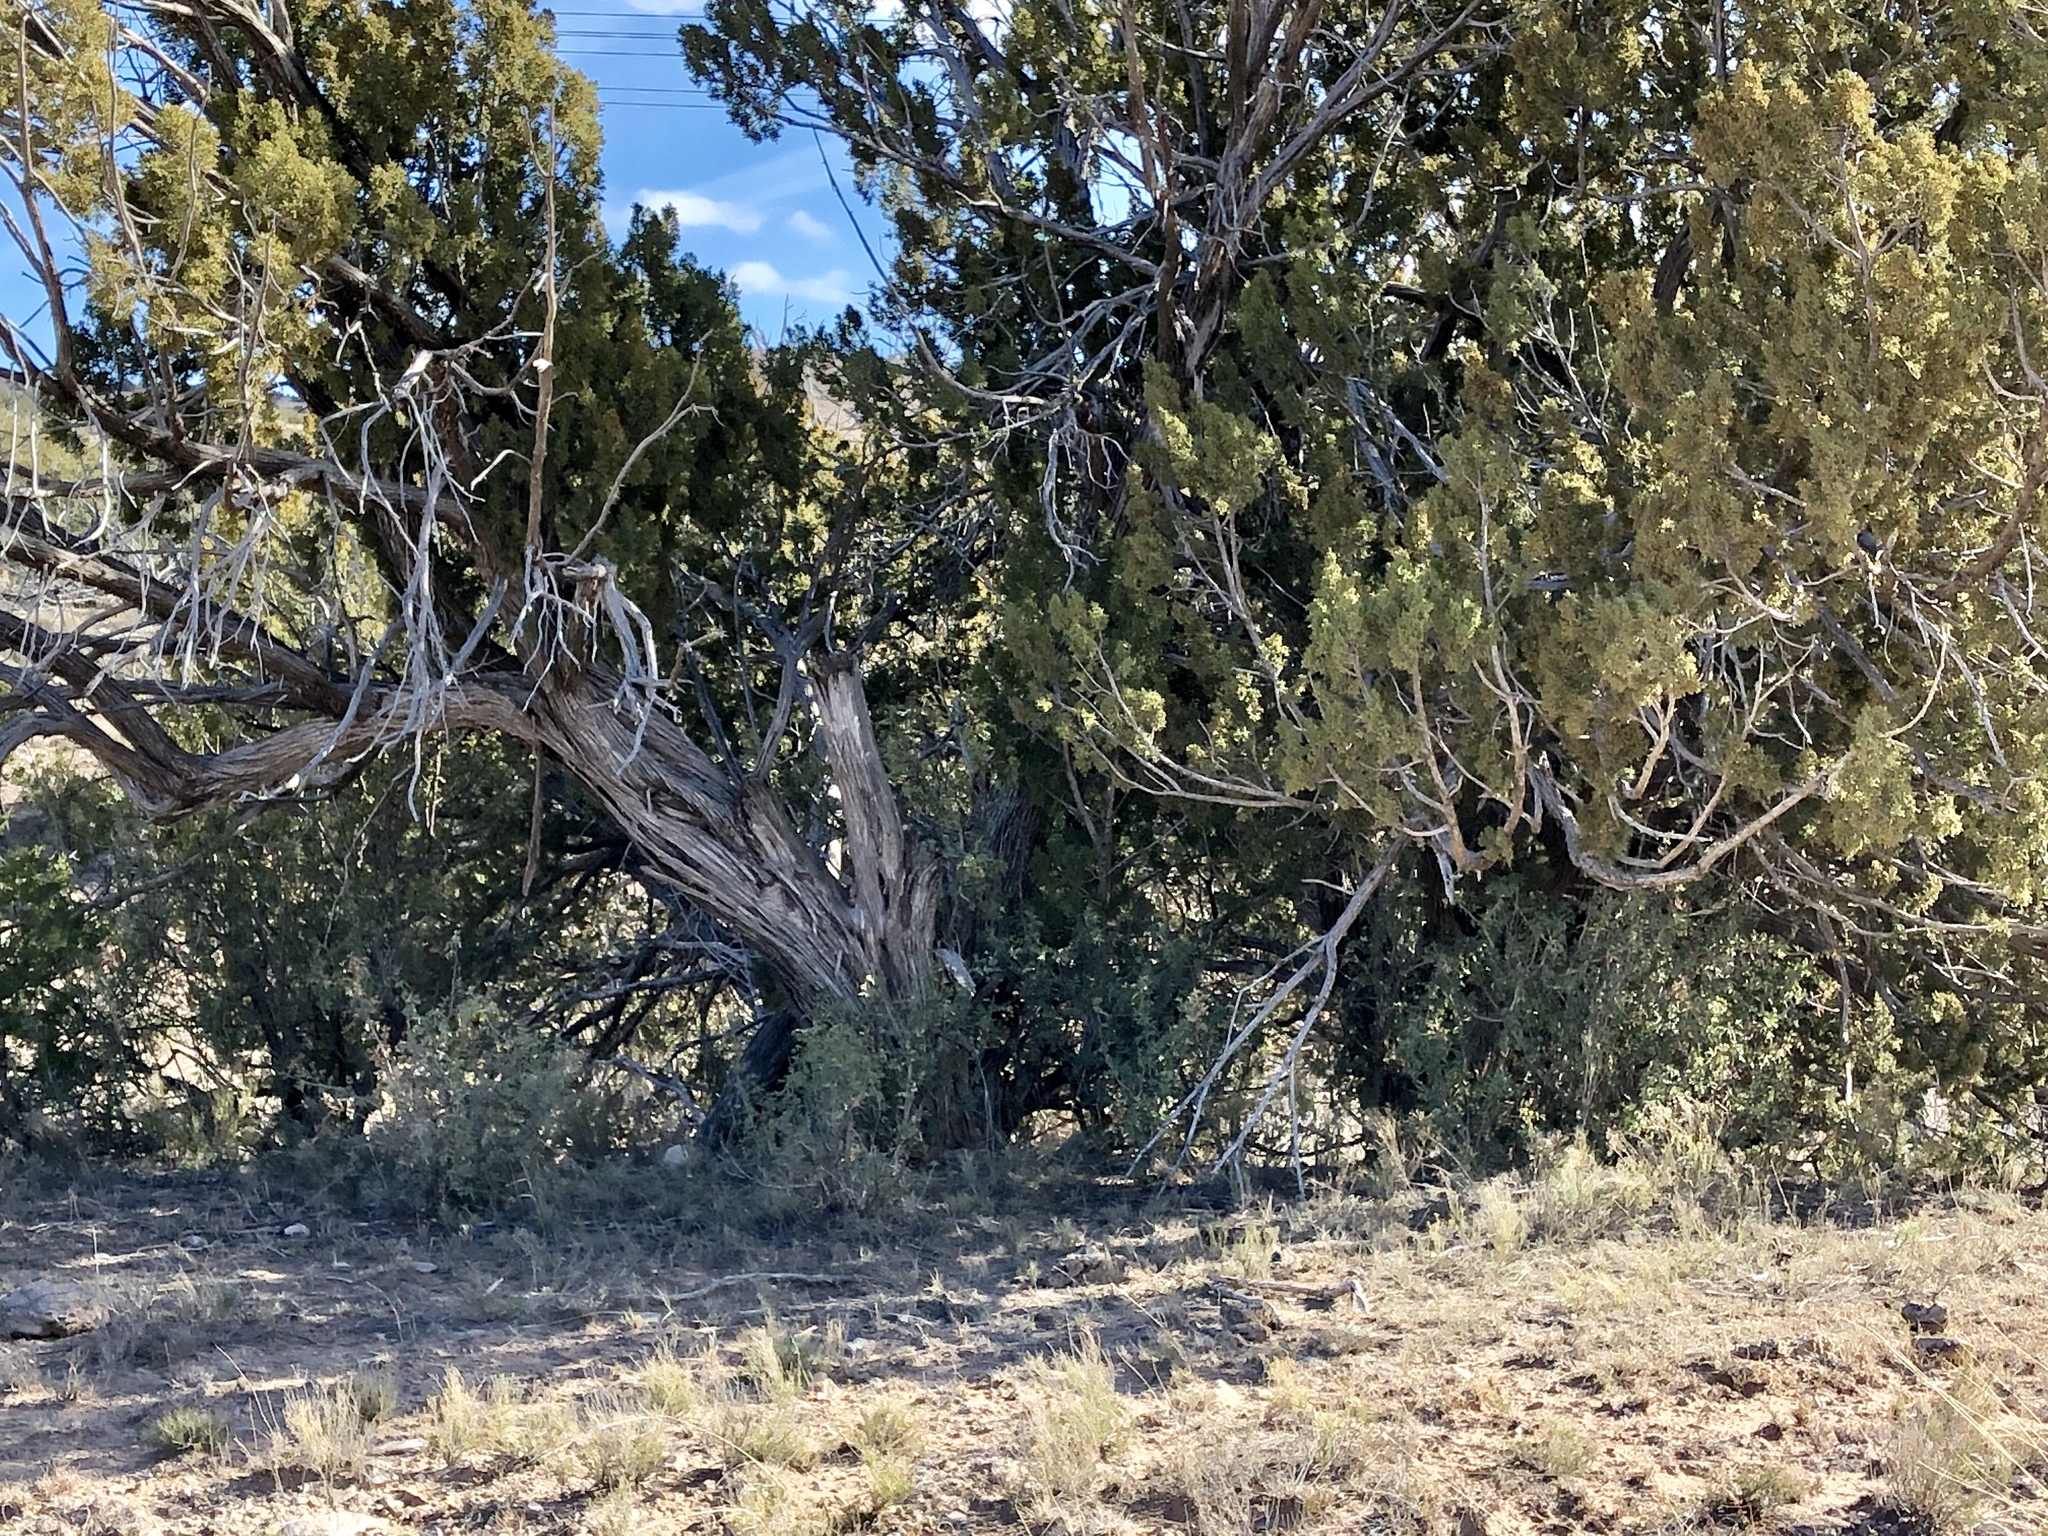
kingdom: Plantae
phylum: Tracheophyta
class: Pinopsida
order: Pinales
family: Cupressaceae
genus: Juniperus
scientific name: Juniperus monosperma
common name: One-seed juniper
